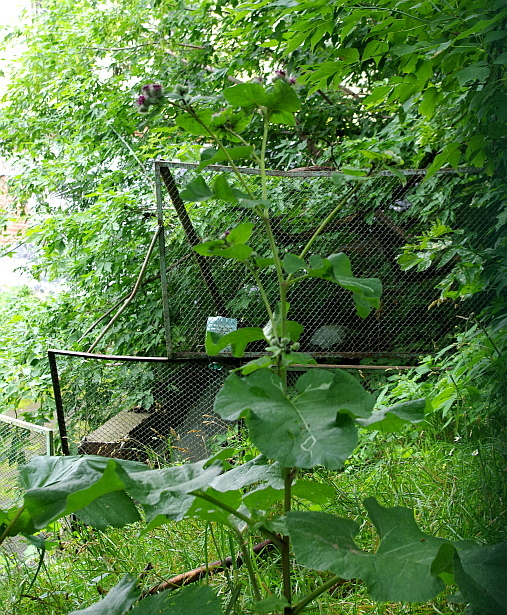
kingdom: Plantae
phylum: Tracheophyta
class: Magnoliopsida
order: Asterales
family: Asteraceae
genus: Arctium
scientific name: Arctium tomentosum
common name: Woolly burdock
